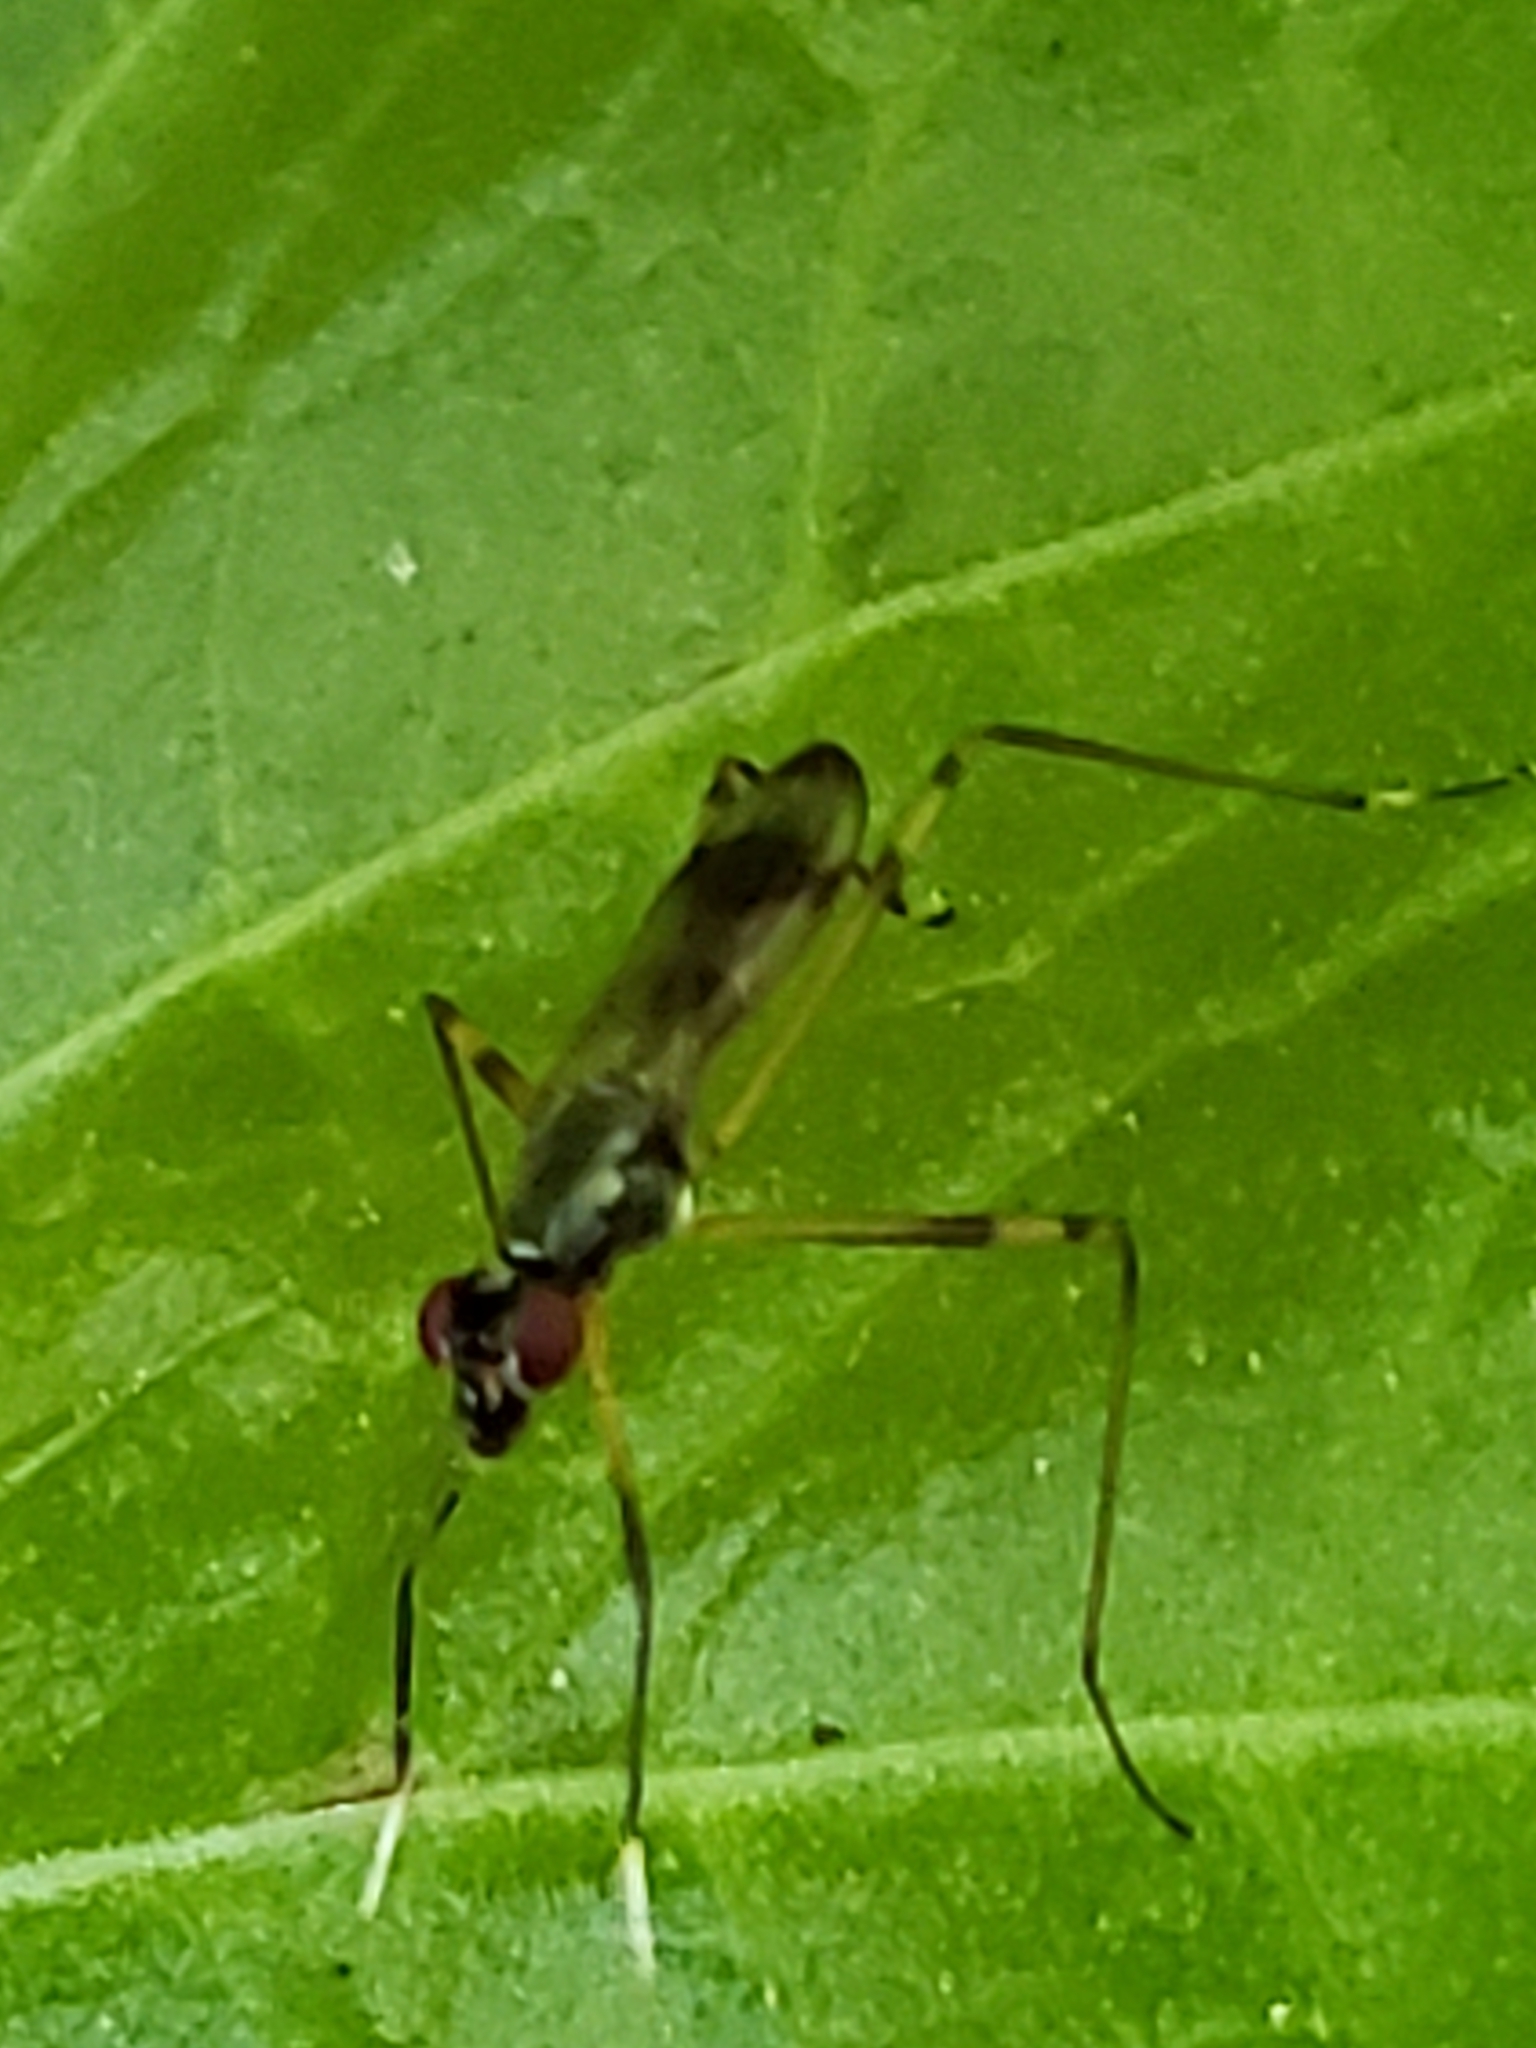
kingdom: Animalia
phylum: Arthropoda
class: Insecta
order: Diptera
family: Micropezidae
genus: Rainieria
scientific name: Rainieria antennaepes
